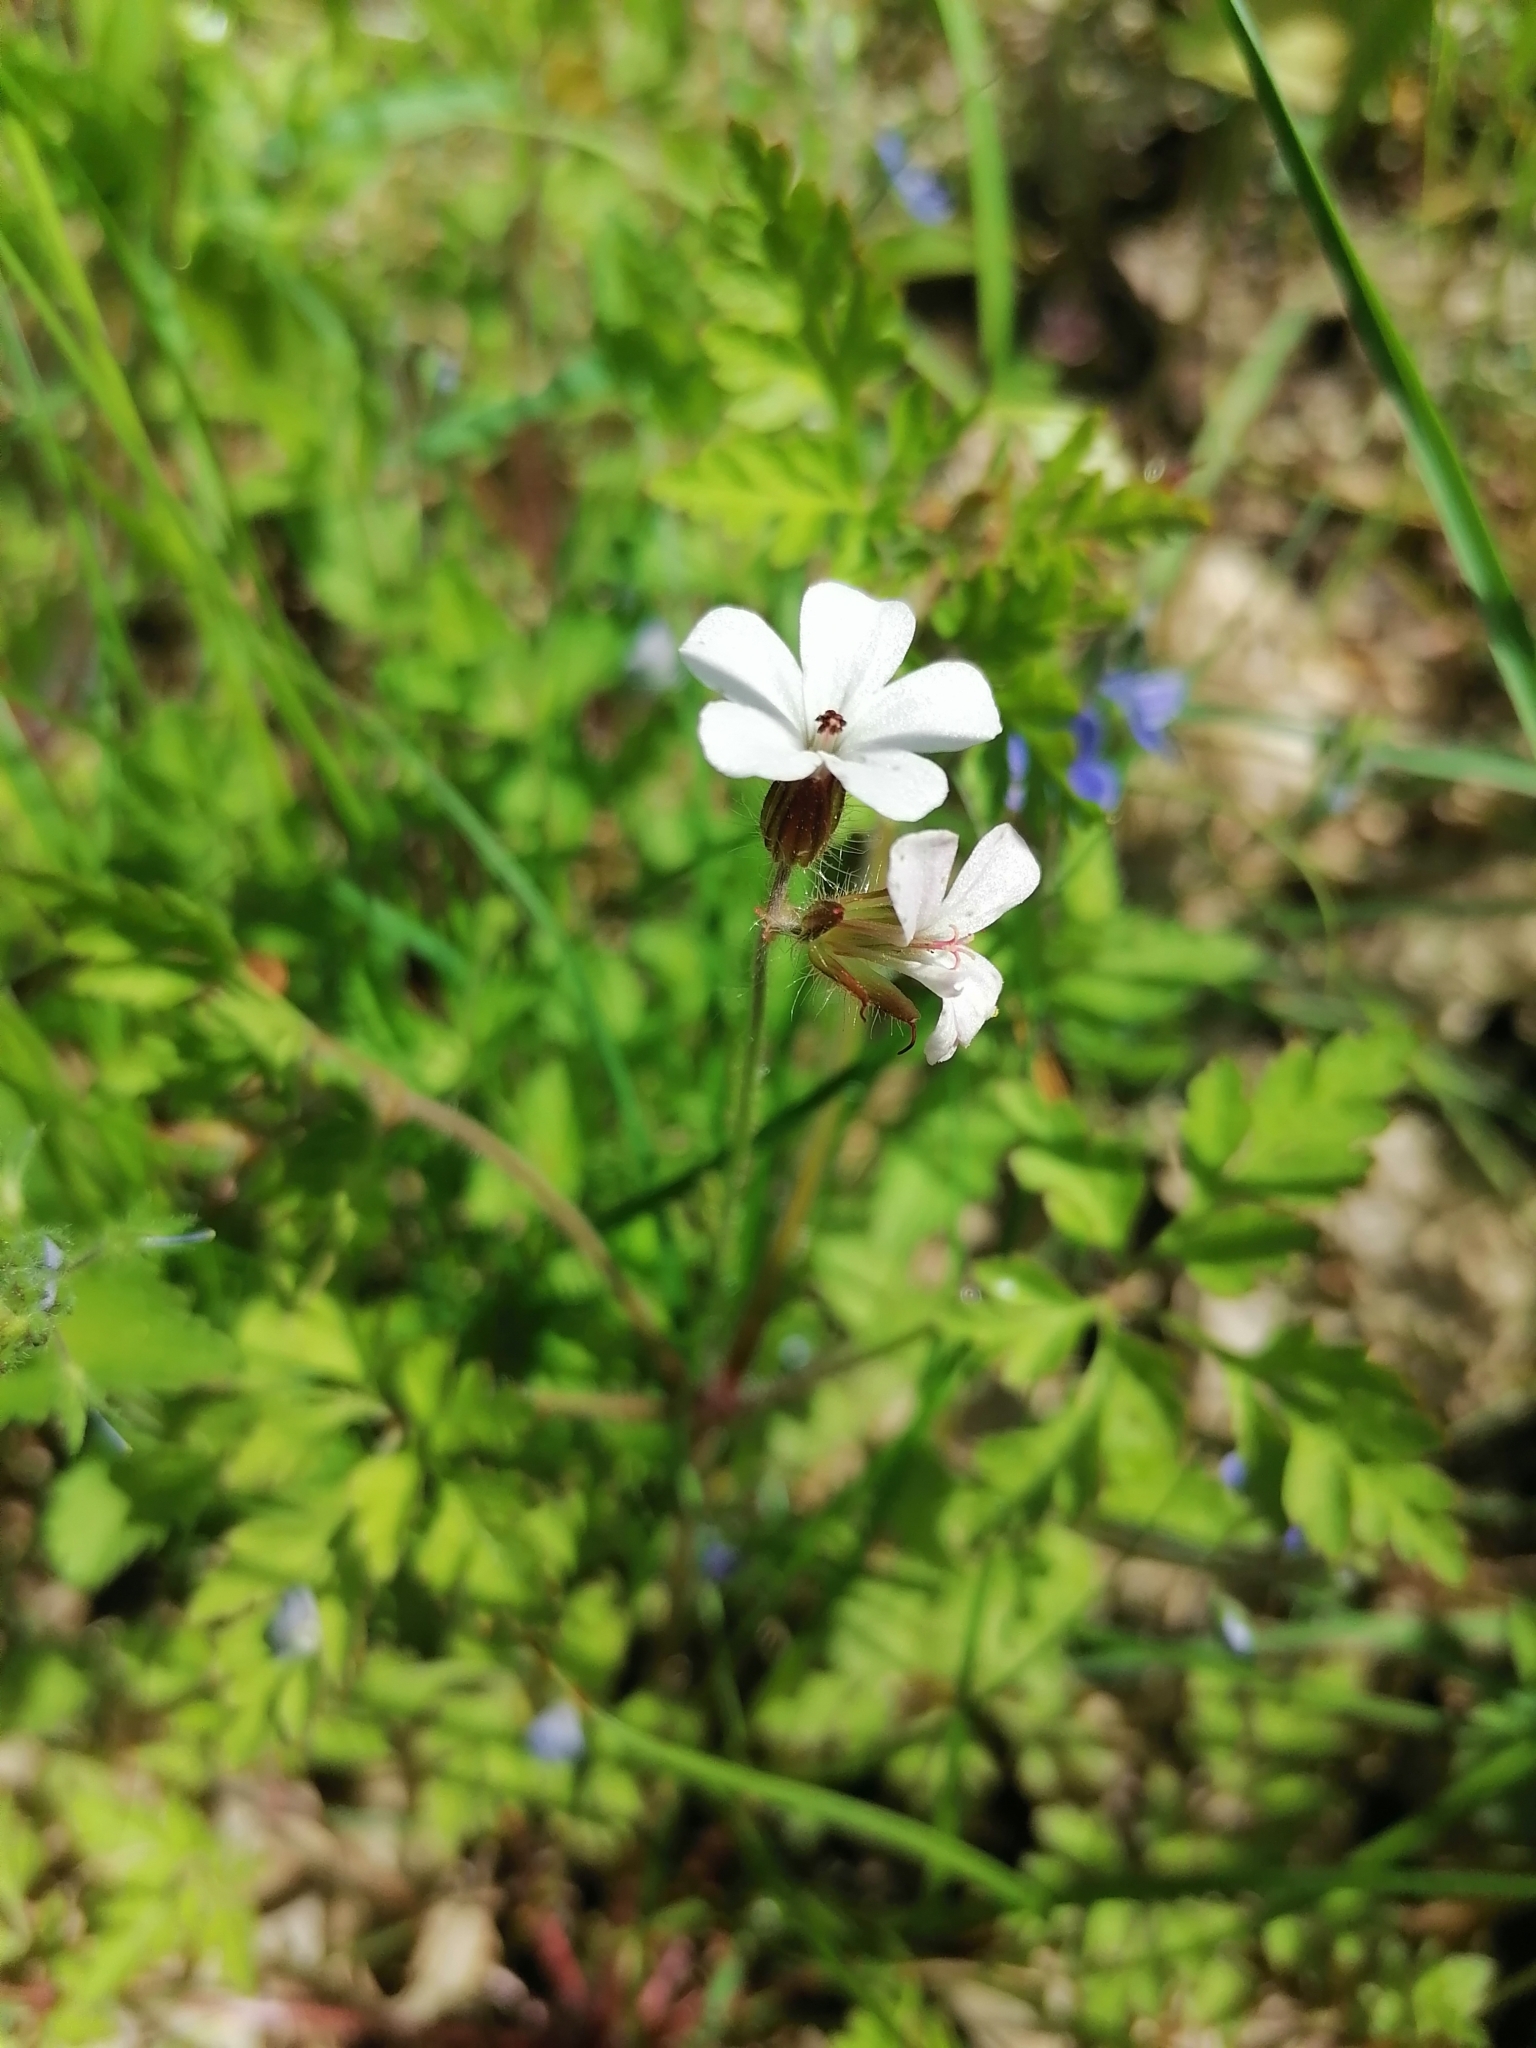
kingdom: Plantae
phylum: Tracheophyta
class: Magnoliopsida
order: Geraniales
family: Geraniaceae
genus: Geranium
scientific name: Geranium robertianum
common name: Herb-robert
